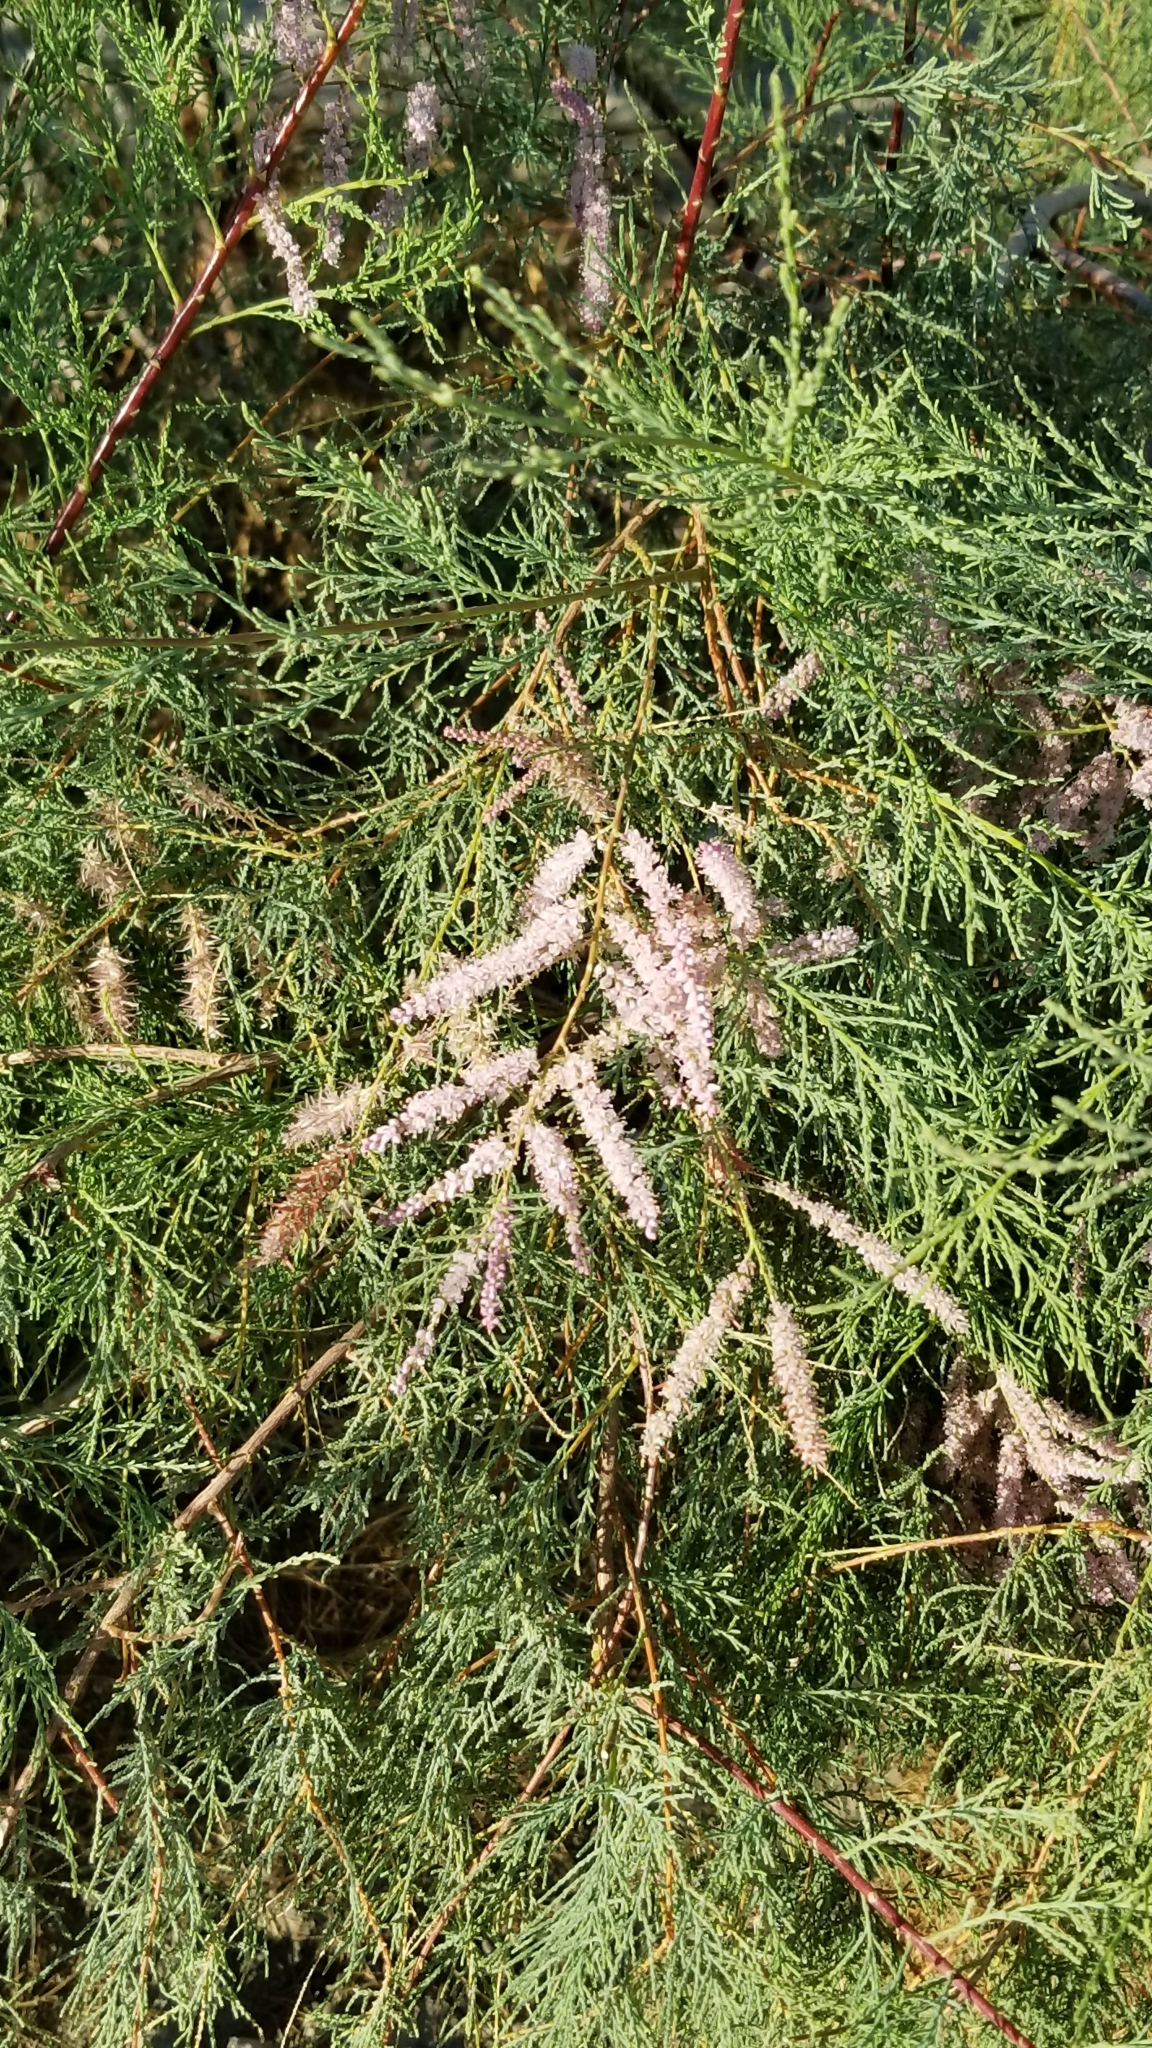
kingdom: Plantae
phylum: Tracheophyta
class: Magnoliopsida
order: Caryophyllales
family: Tamaricaceae
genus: Tamarix
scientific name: Tamarix ramosissima
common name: Pink tamarisk
